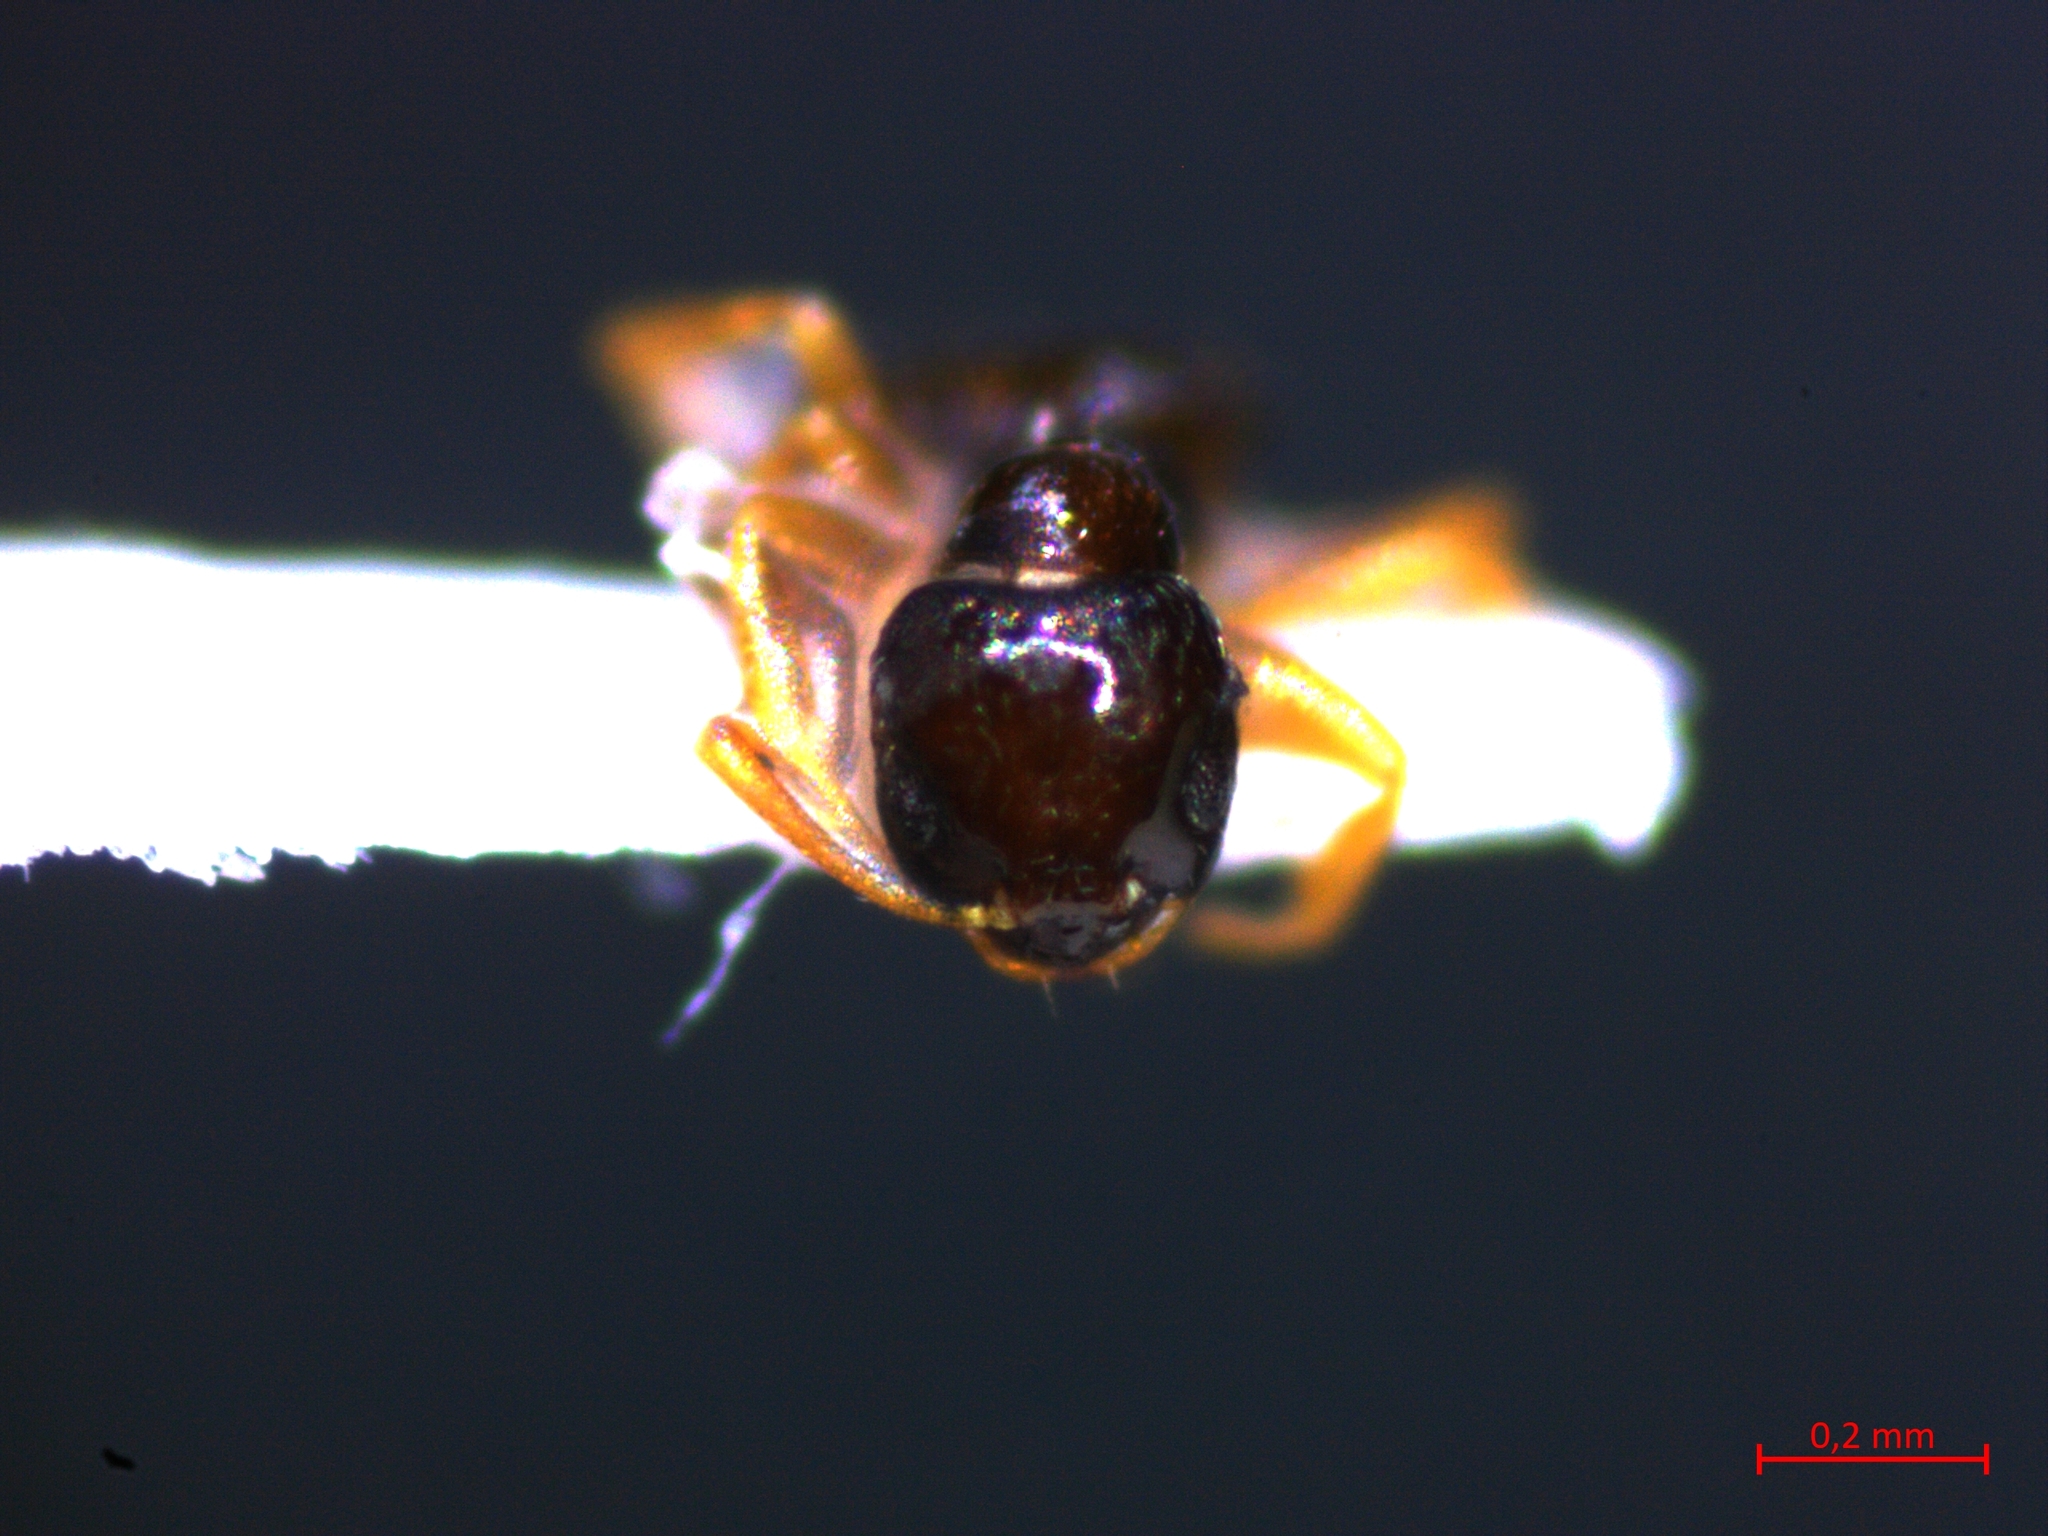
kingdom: Animalia
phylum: Arthropoda
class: Insecta
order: Hymenoptera
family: Formicidae
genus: Plagiolepis
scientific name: Plagiolepis pygmaea
